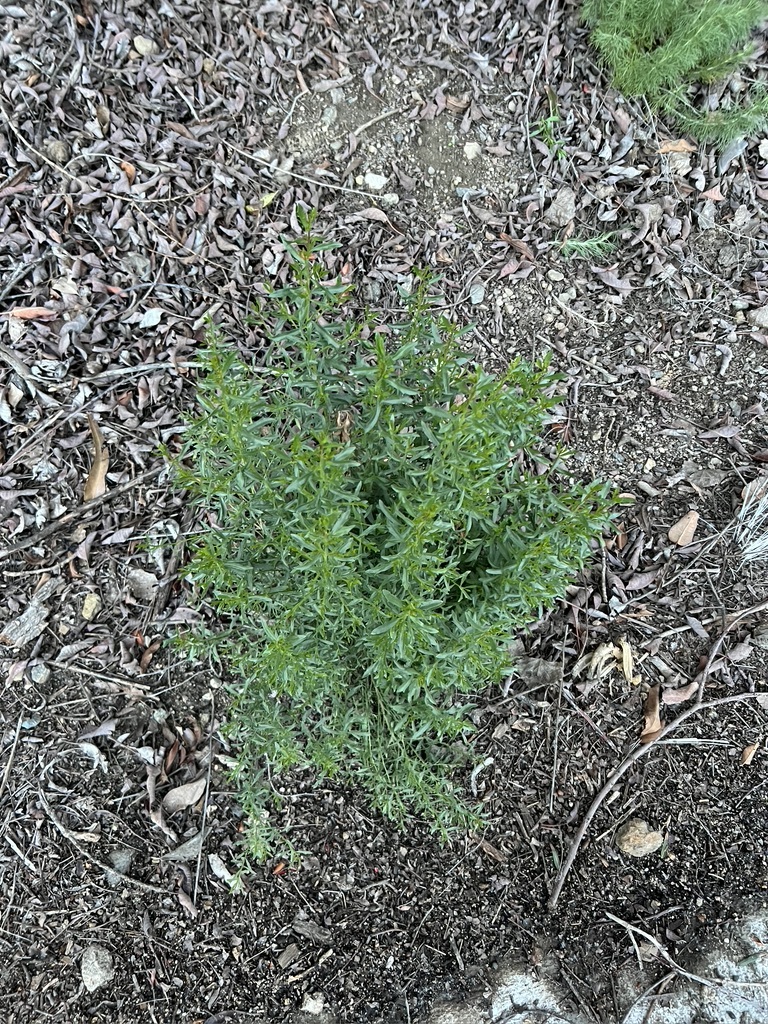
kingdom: Plantae
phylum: Tracheophyta
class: Magnoliopsida
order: Asterales
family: Asteraceae
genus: Baccharis
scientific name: Baccharis salicina
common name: Willow baccharis
